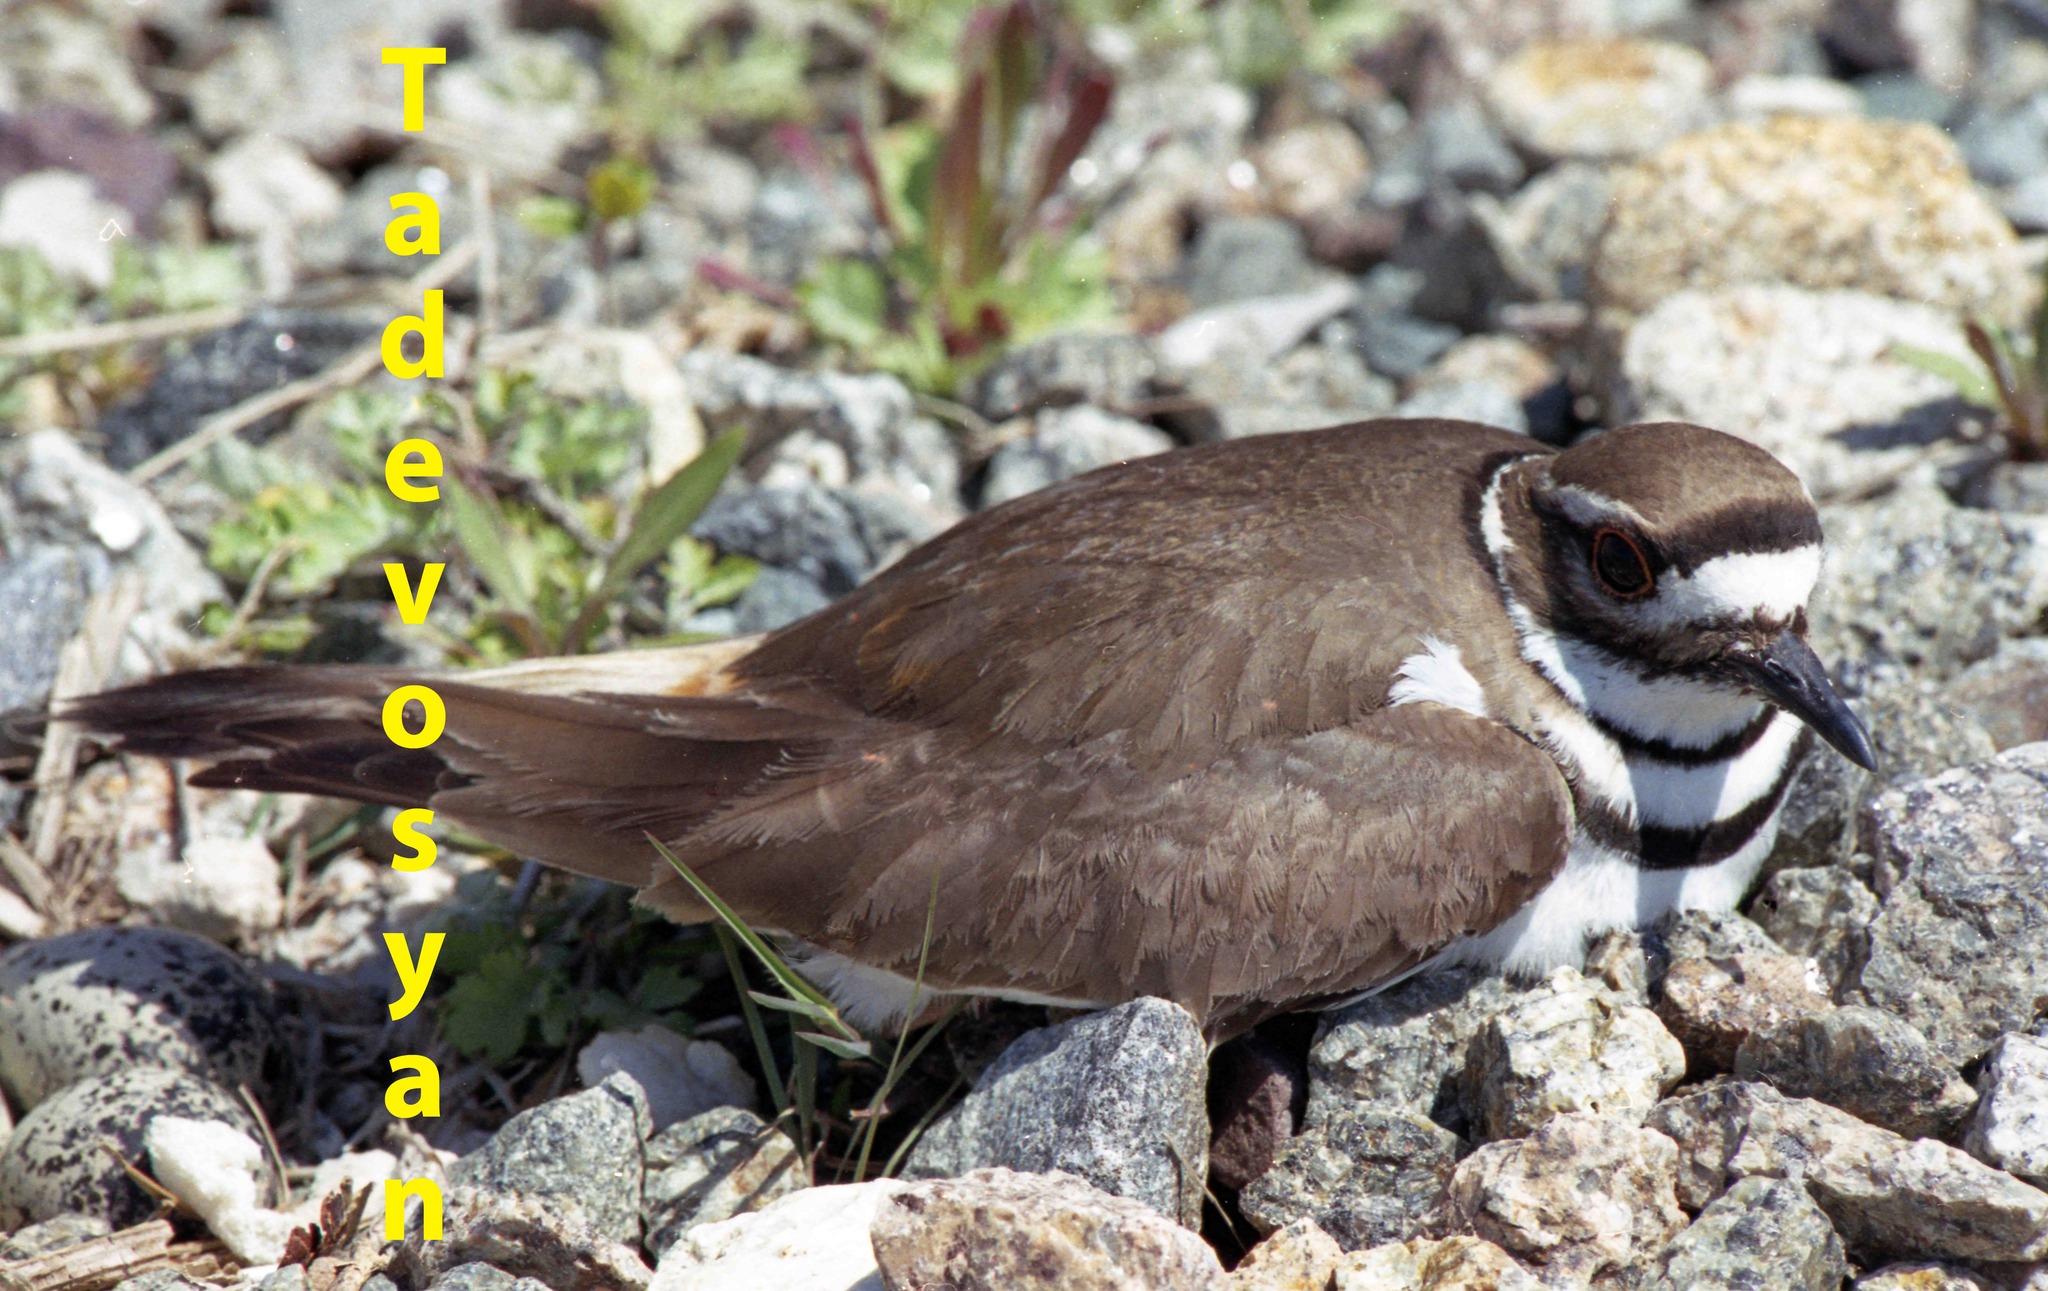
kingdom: Animalia
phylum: Chordata
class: Aves
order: Charadriiformes
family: Charadriidae
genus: Charadrius
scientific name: Charadrius vociferus
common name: Killdeer
